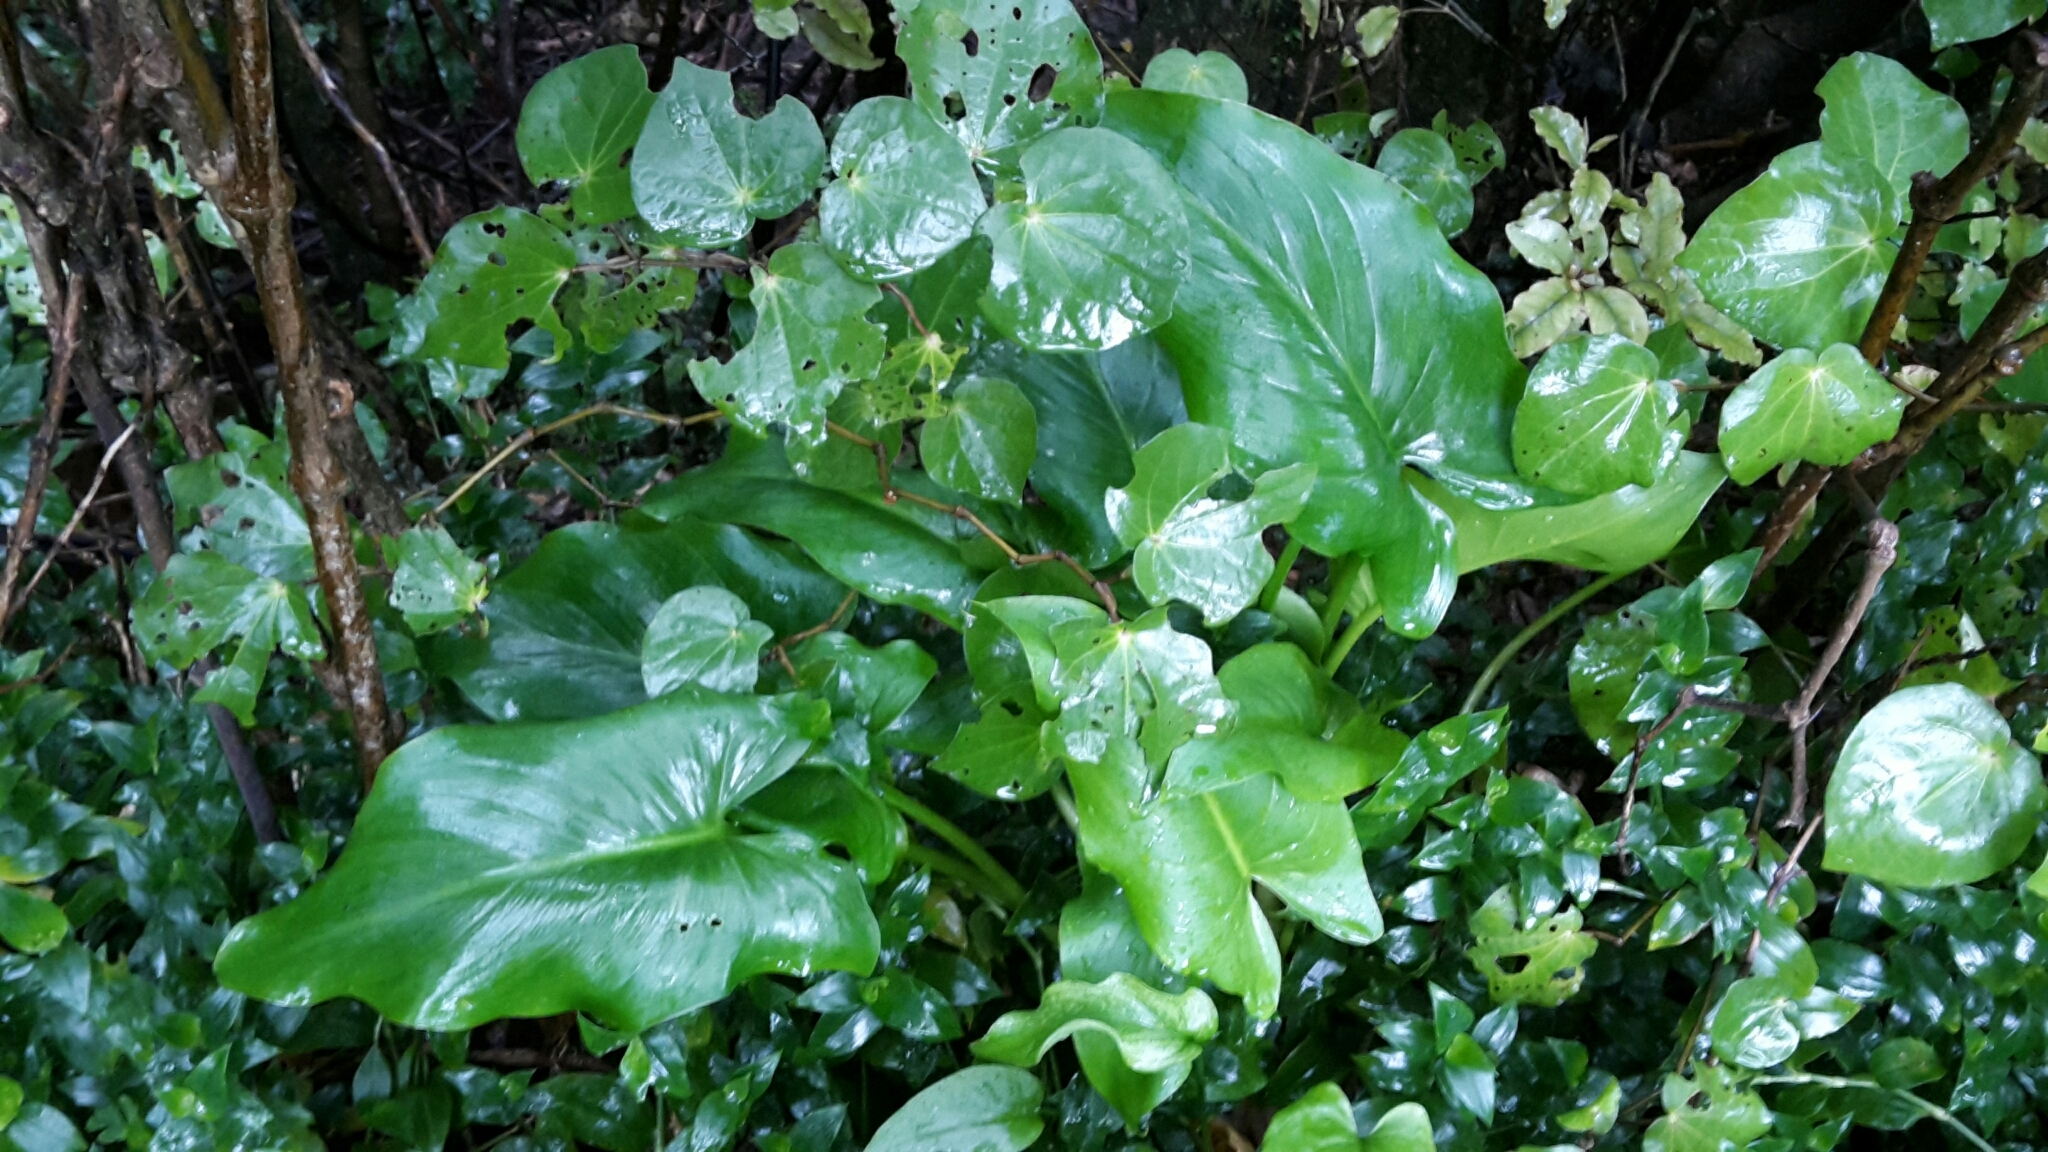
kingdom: Plantae
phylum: Tracheophyta
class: Liliopsida
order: Alismatales
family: Araceae
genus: Zantedeschia
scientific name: Zantedeschia aethiopica
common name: Altar-lily
